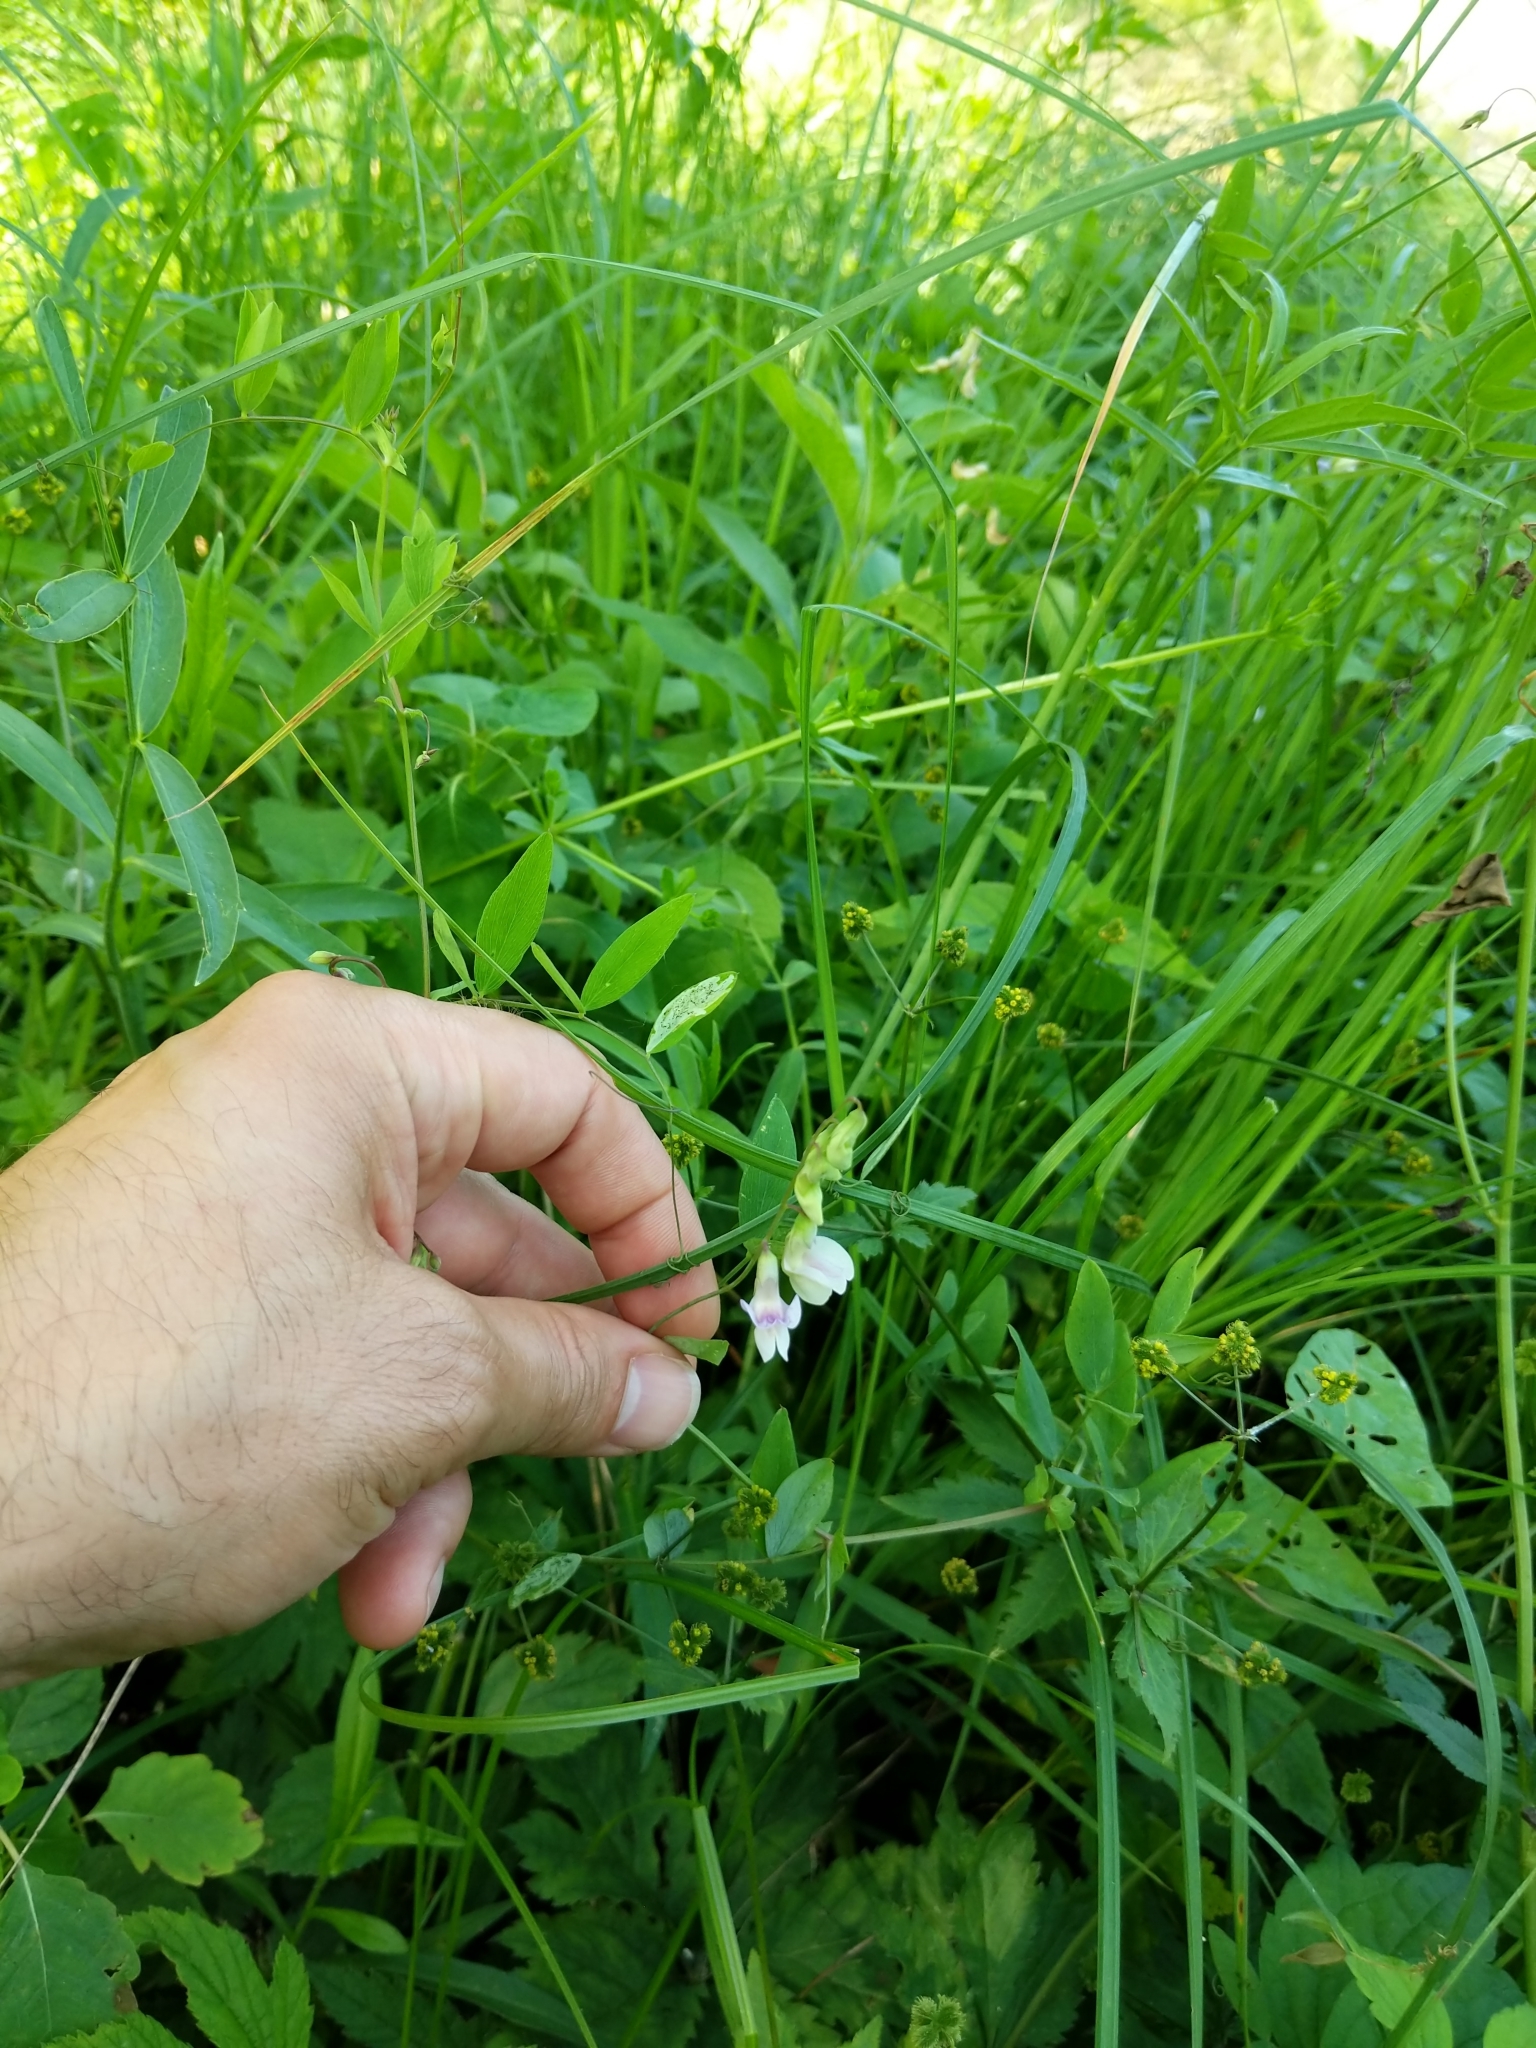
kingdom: Plantae
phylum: Tracheophyta
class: Magnoliopsida
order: Fabales
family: Fabaceae
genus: Lathyrus
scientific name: Lathyrus palustris
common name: Marsh pea
